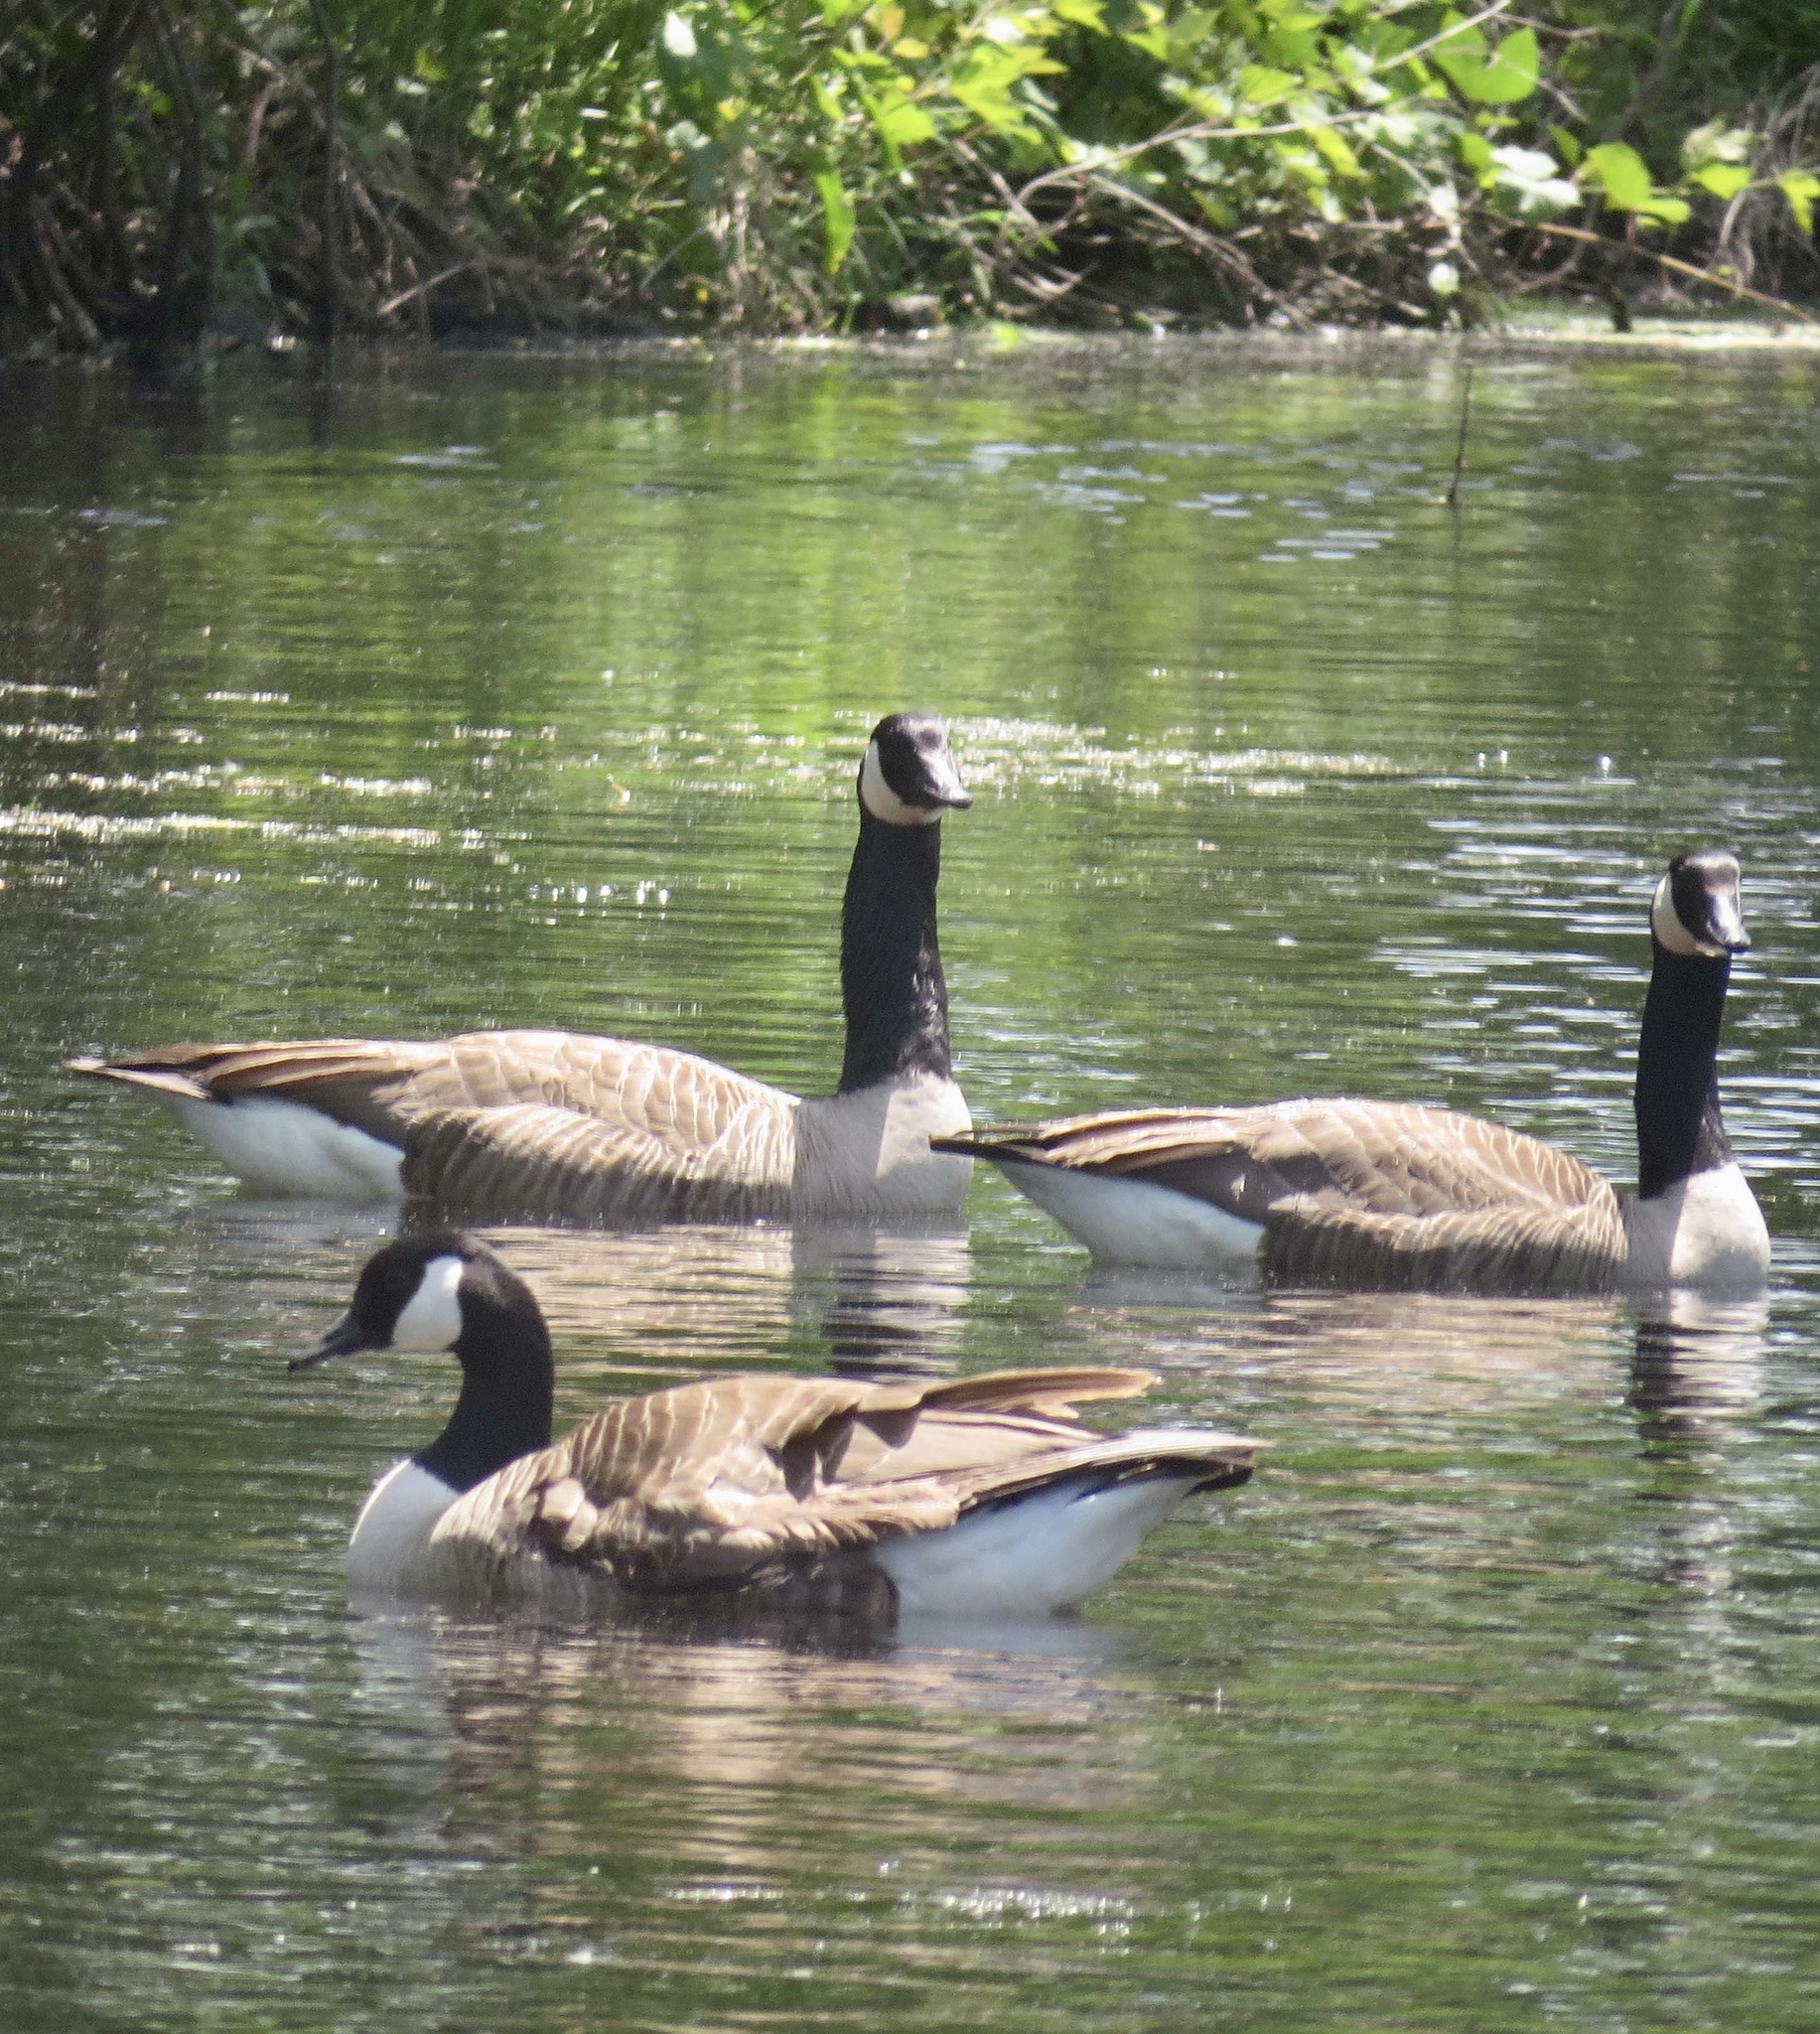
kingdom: Animalia
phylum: Chordata
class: Aves
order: Anseriformes
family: Anatidae
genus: Branta
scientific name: Branta canadensis
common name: Canada goose
